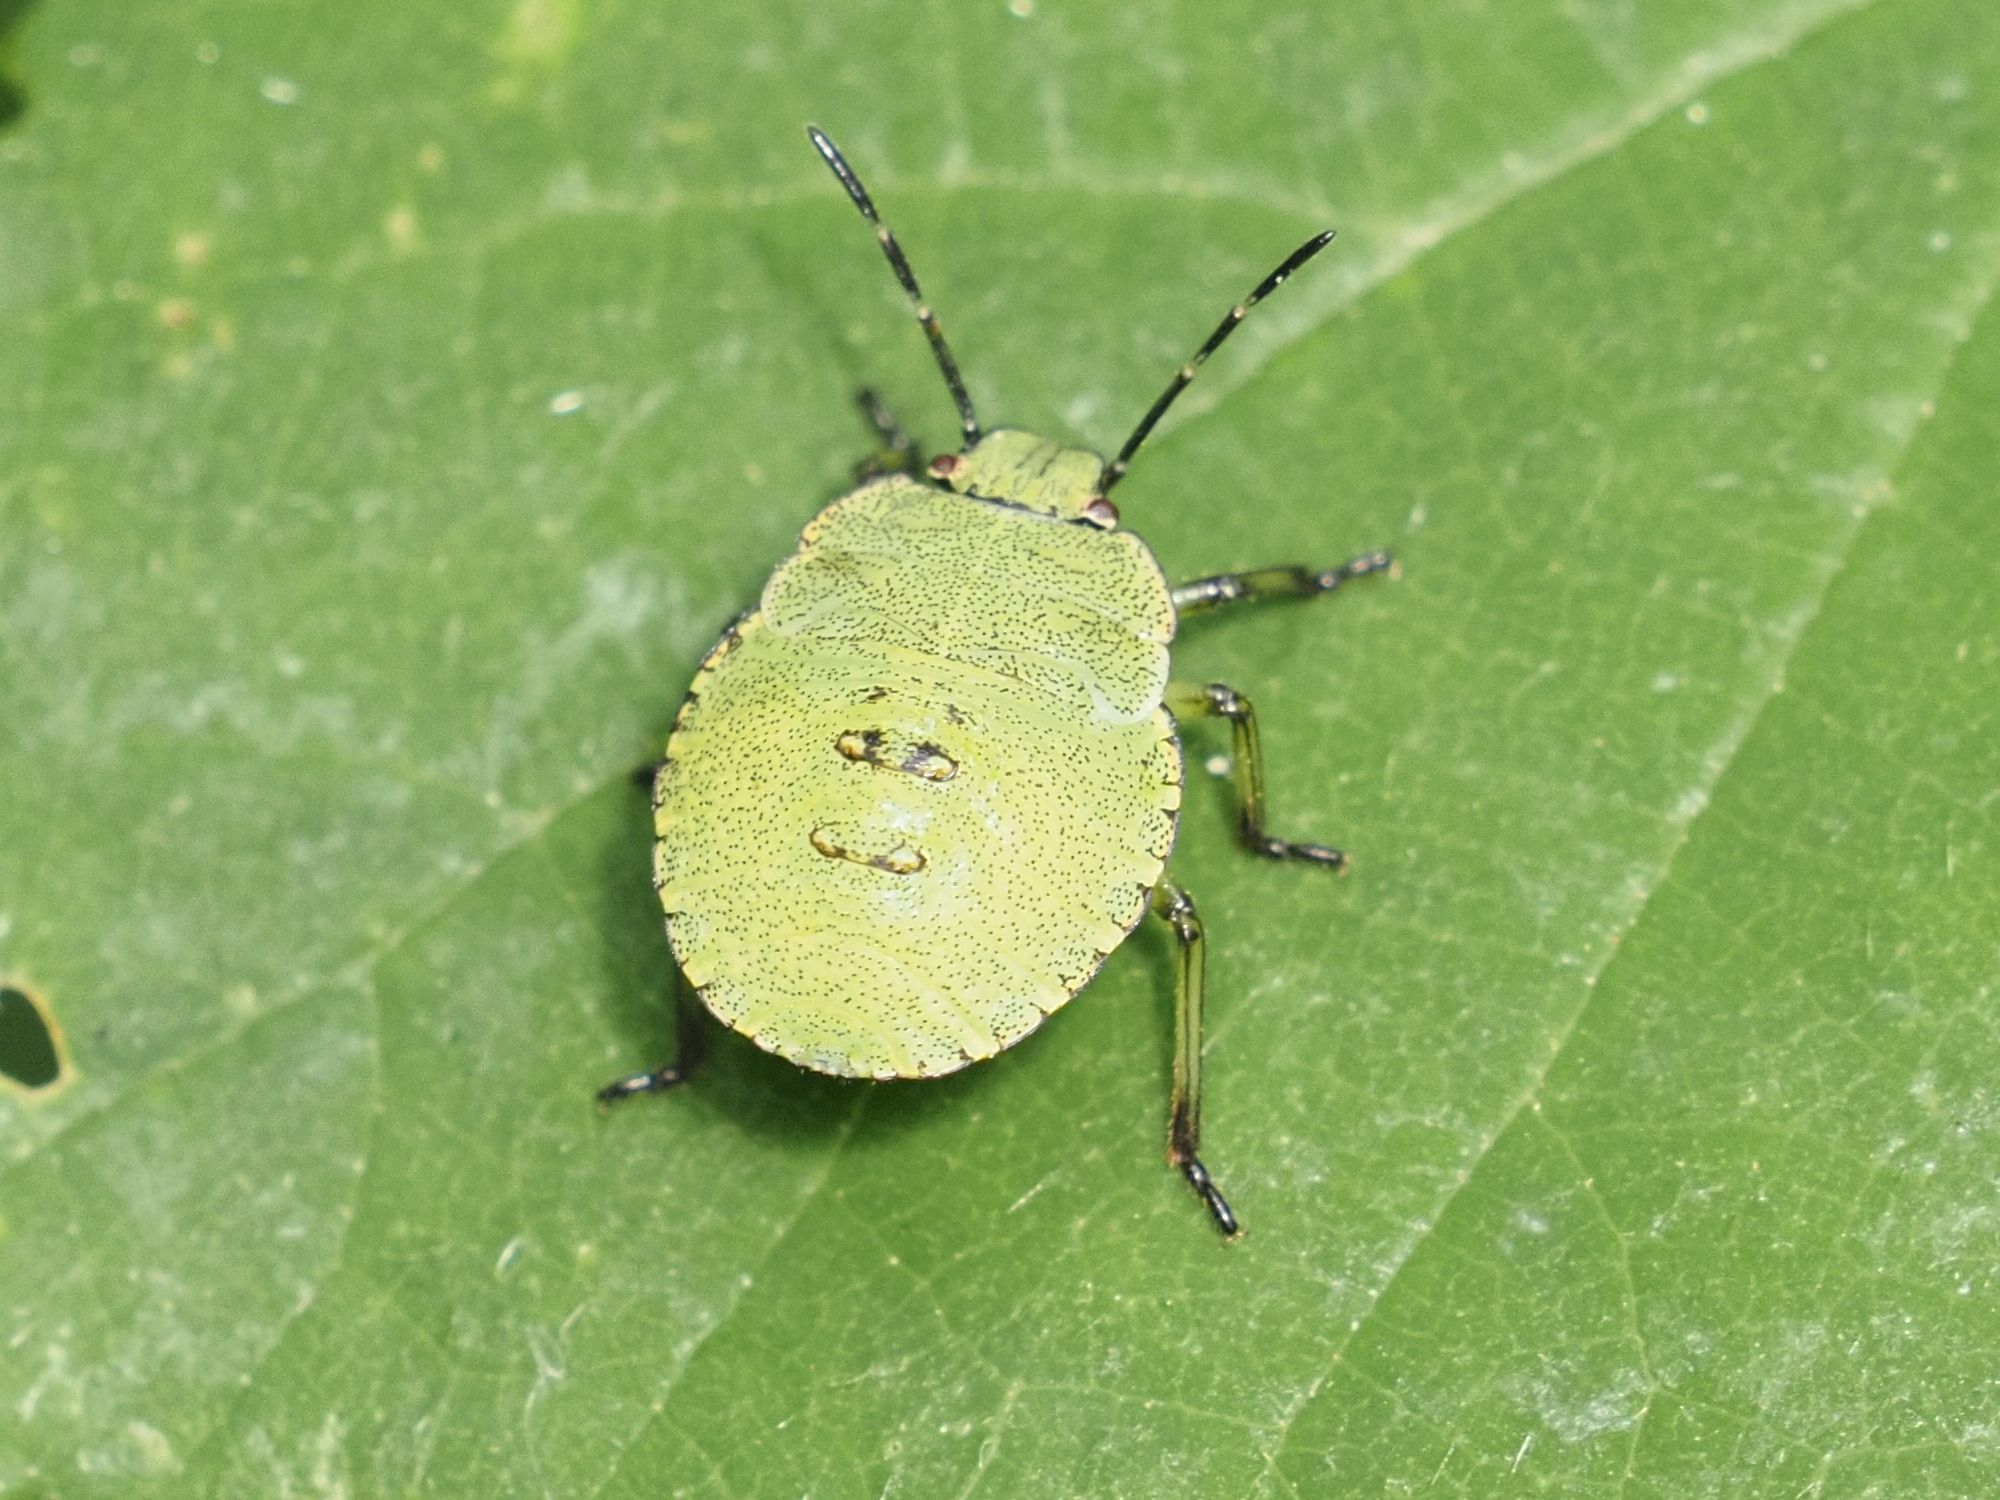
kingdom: Animalia
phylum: Arthropoda
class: Insecta
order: Hemiptera
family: Pentatomidae
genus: Palomena
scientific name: Palomena prasina
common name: Green shieldbug
